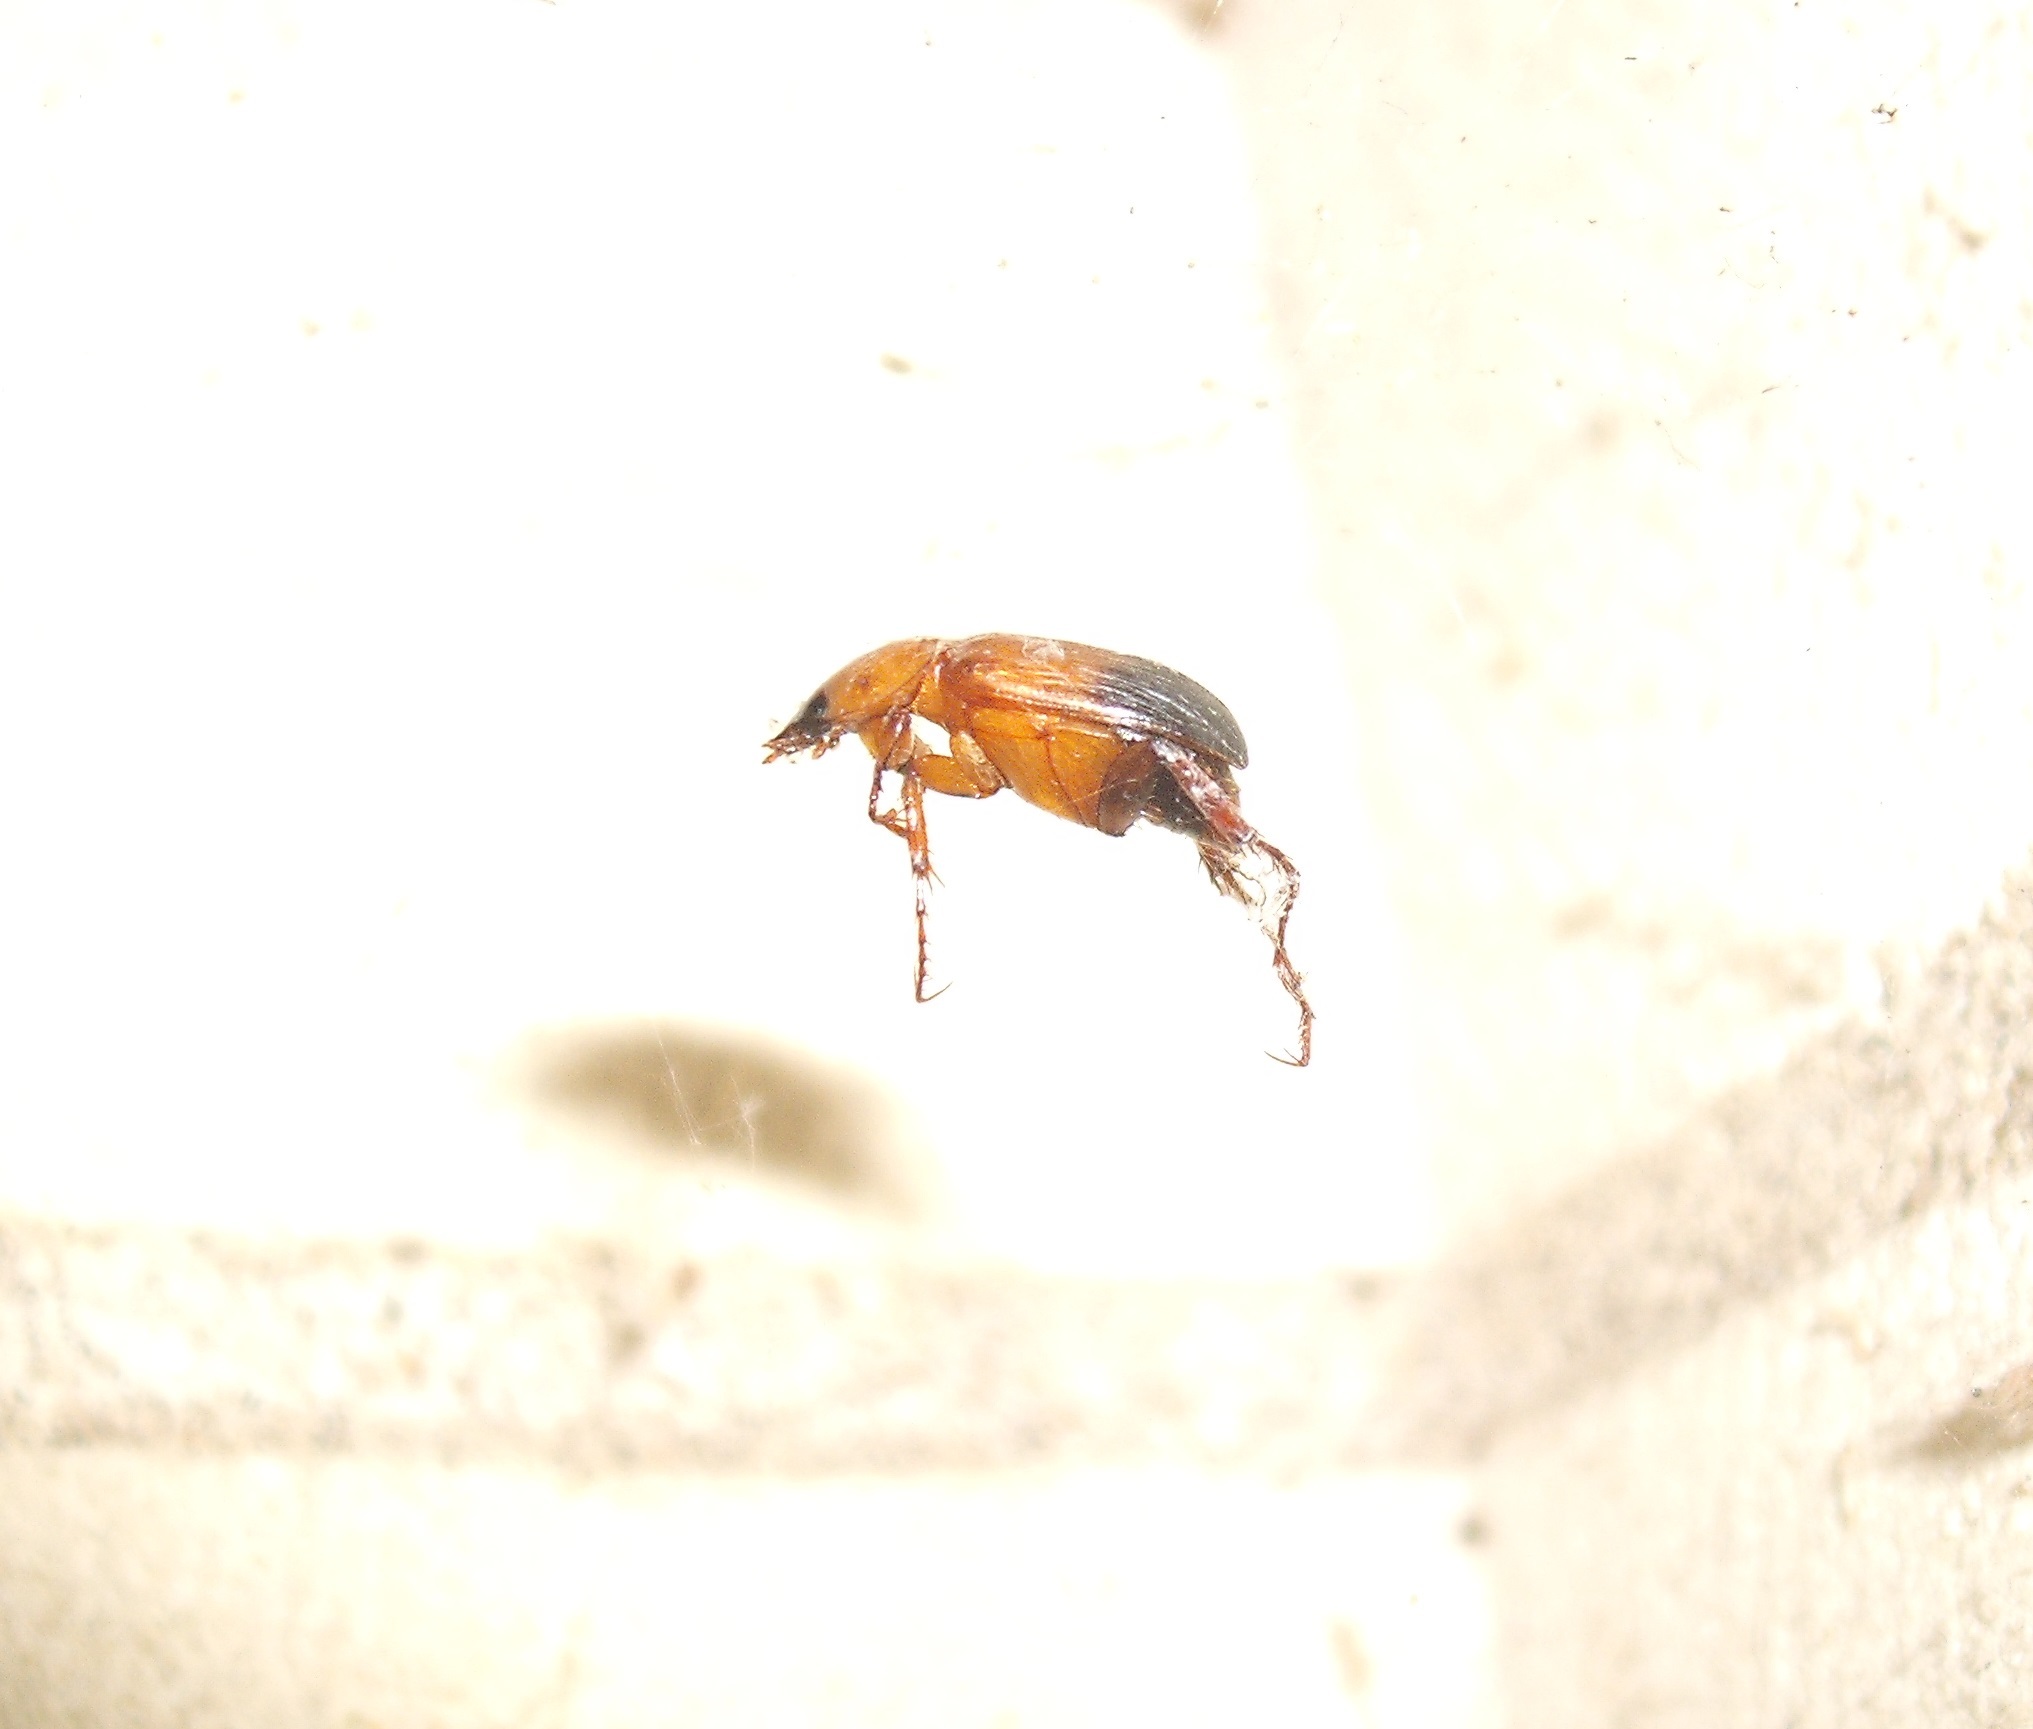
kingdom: Animalia
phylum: Arthropoda
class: Insecta
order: Coleoptera
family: Scarabaeidae
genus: Phyllotocus
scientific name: Phyllotocus macleayi
